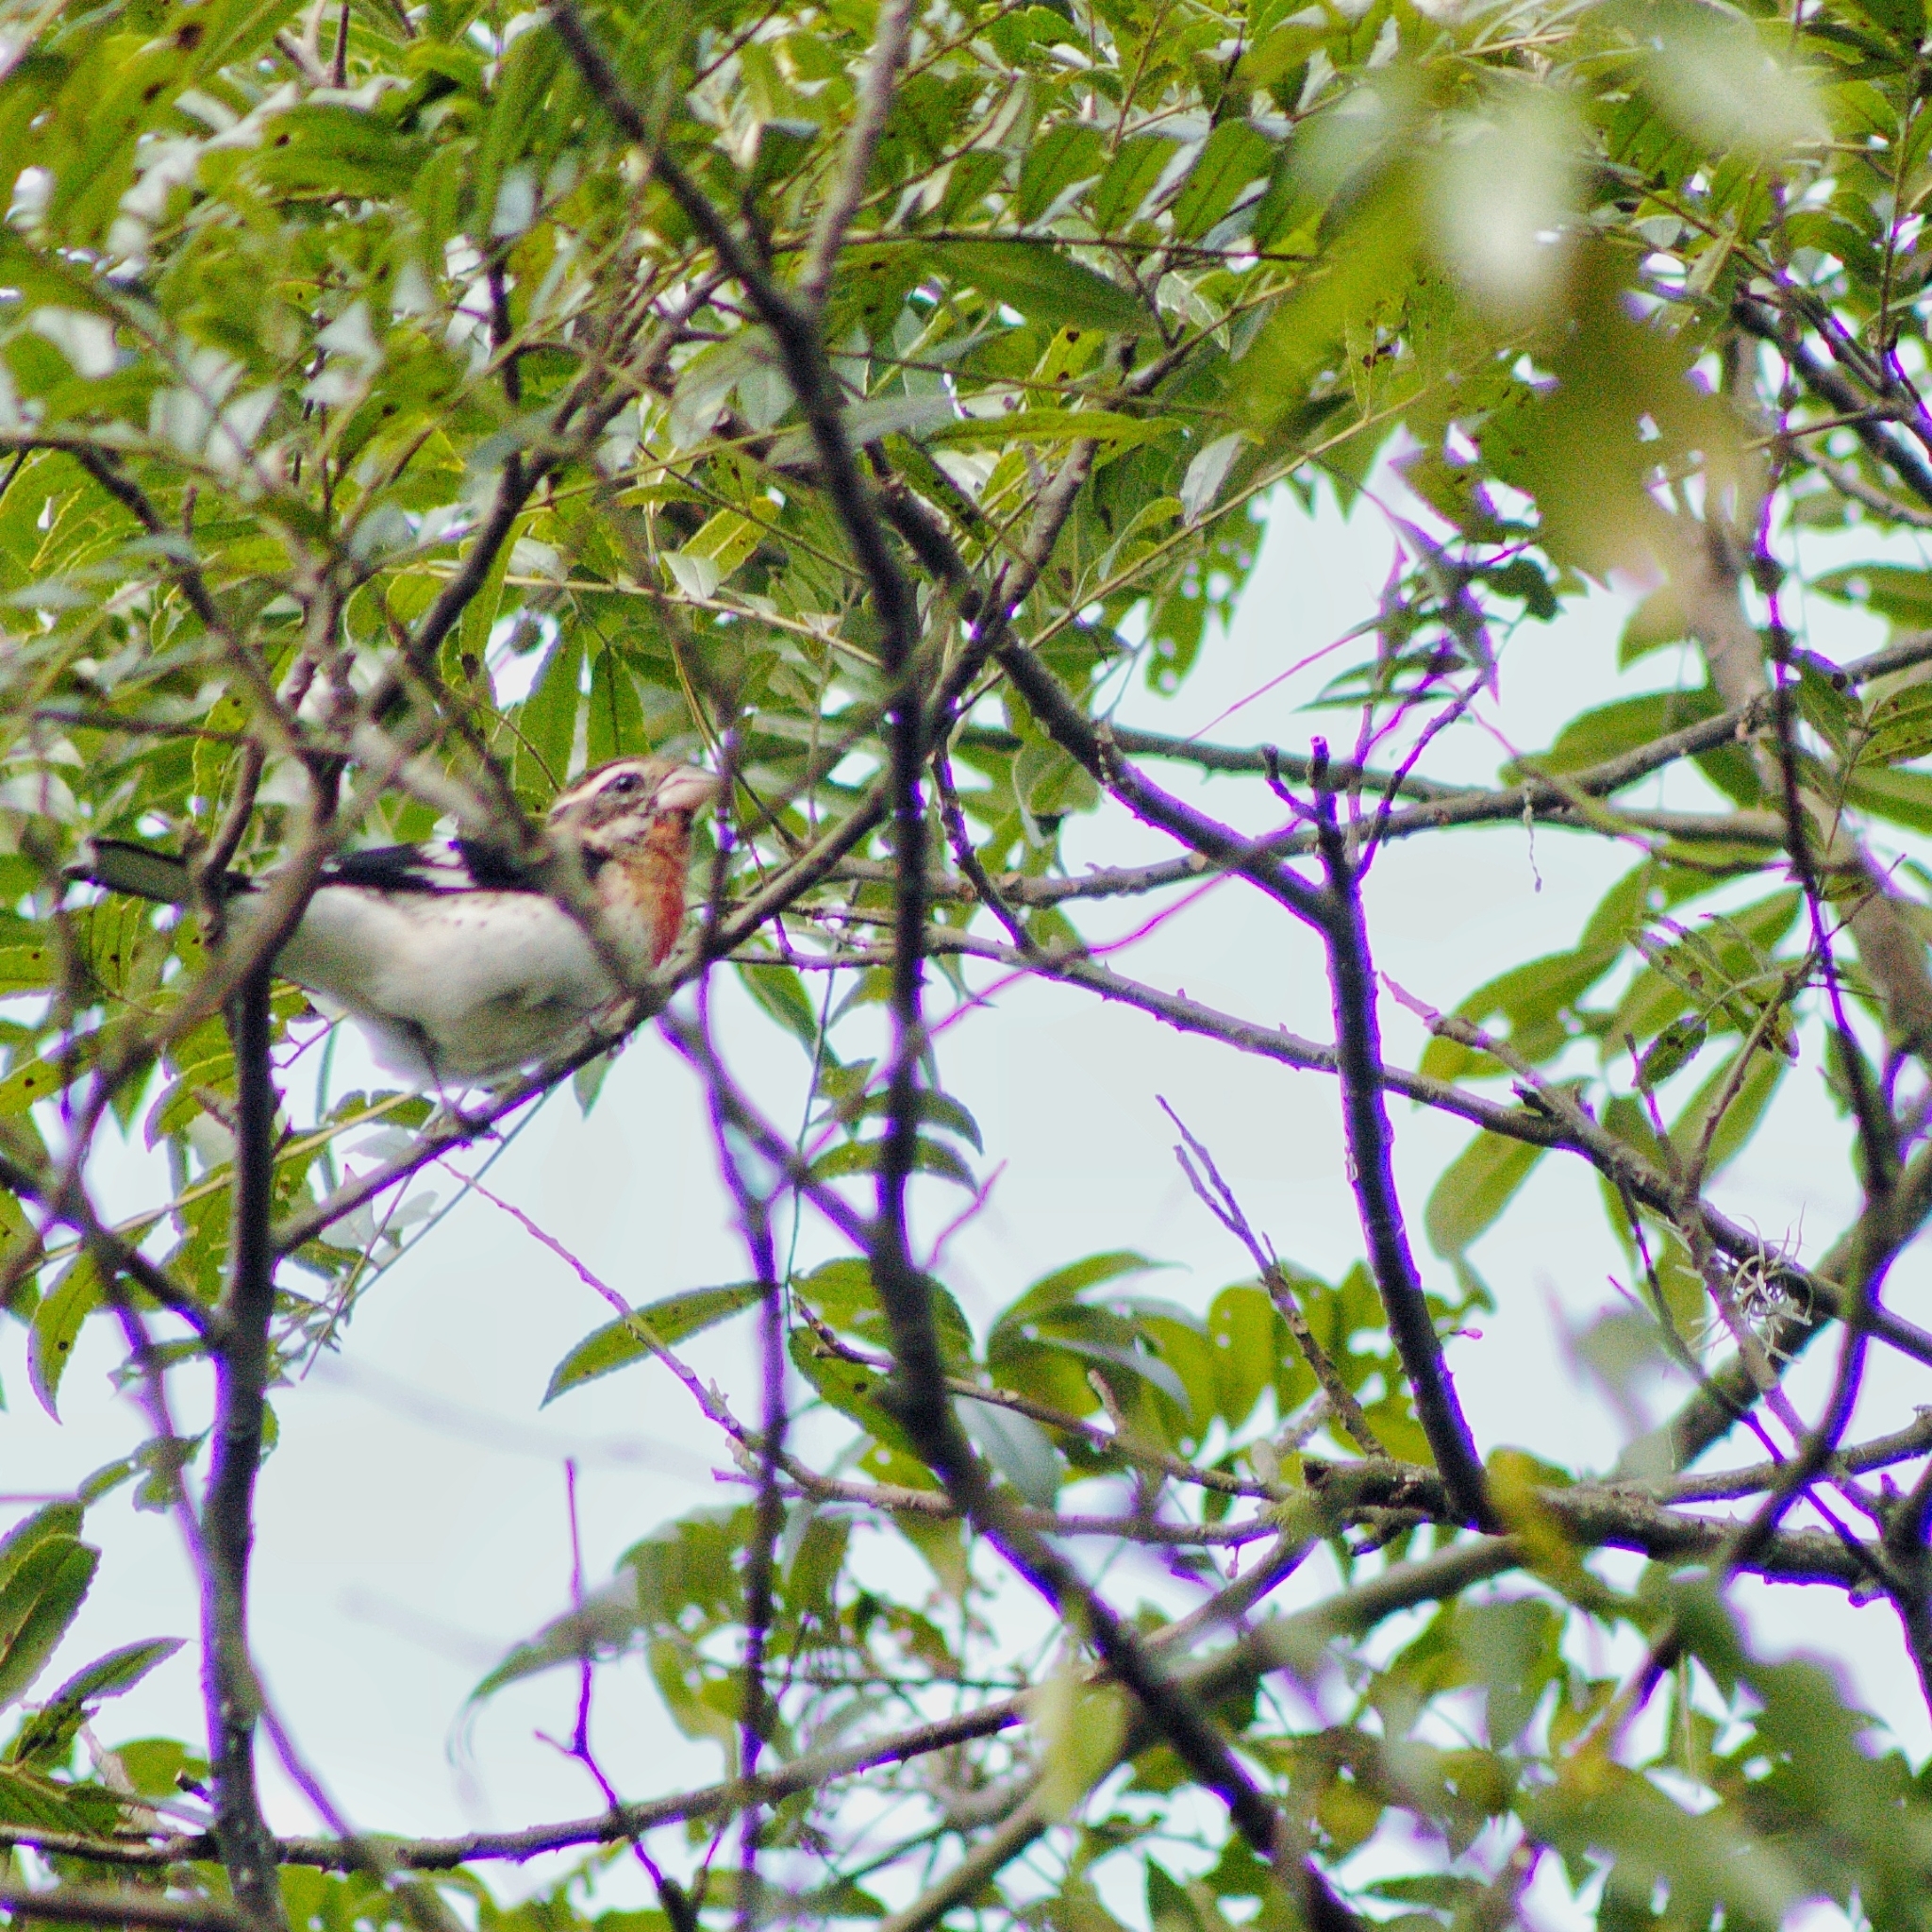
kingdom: Animalia
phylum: Chordata
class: Aves
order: Passeriformes
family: Cardinalidae
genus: Pheucticus
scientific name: Pheucticus ludovicianus
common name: Rose-breasted grosbeak
